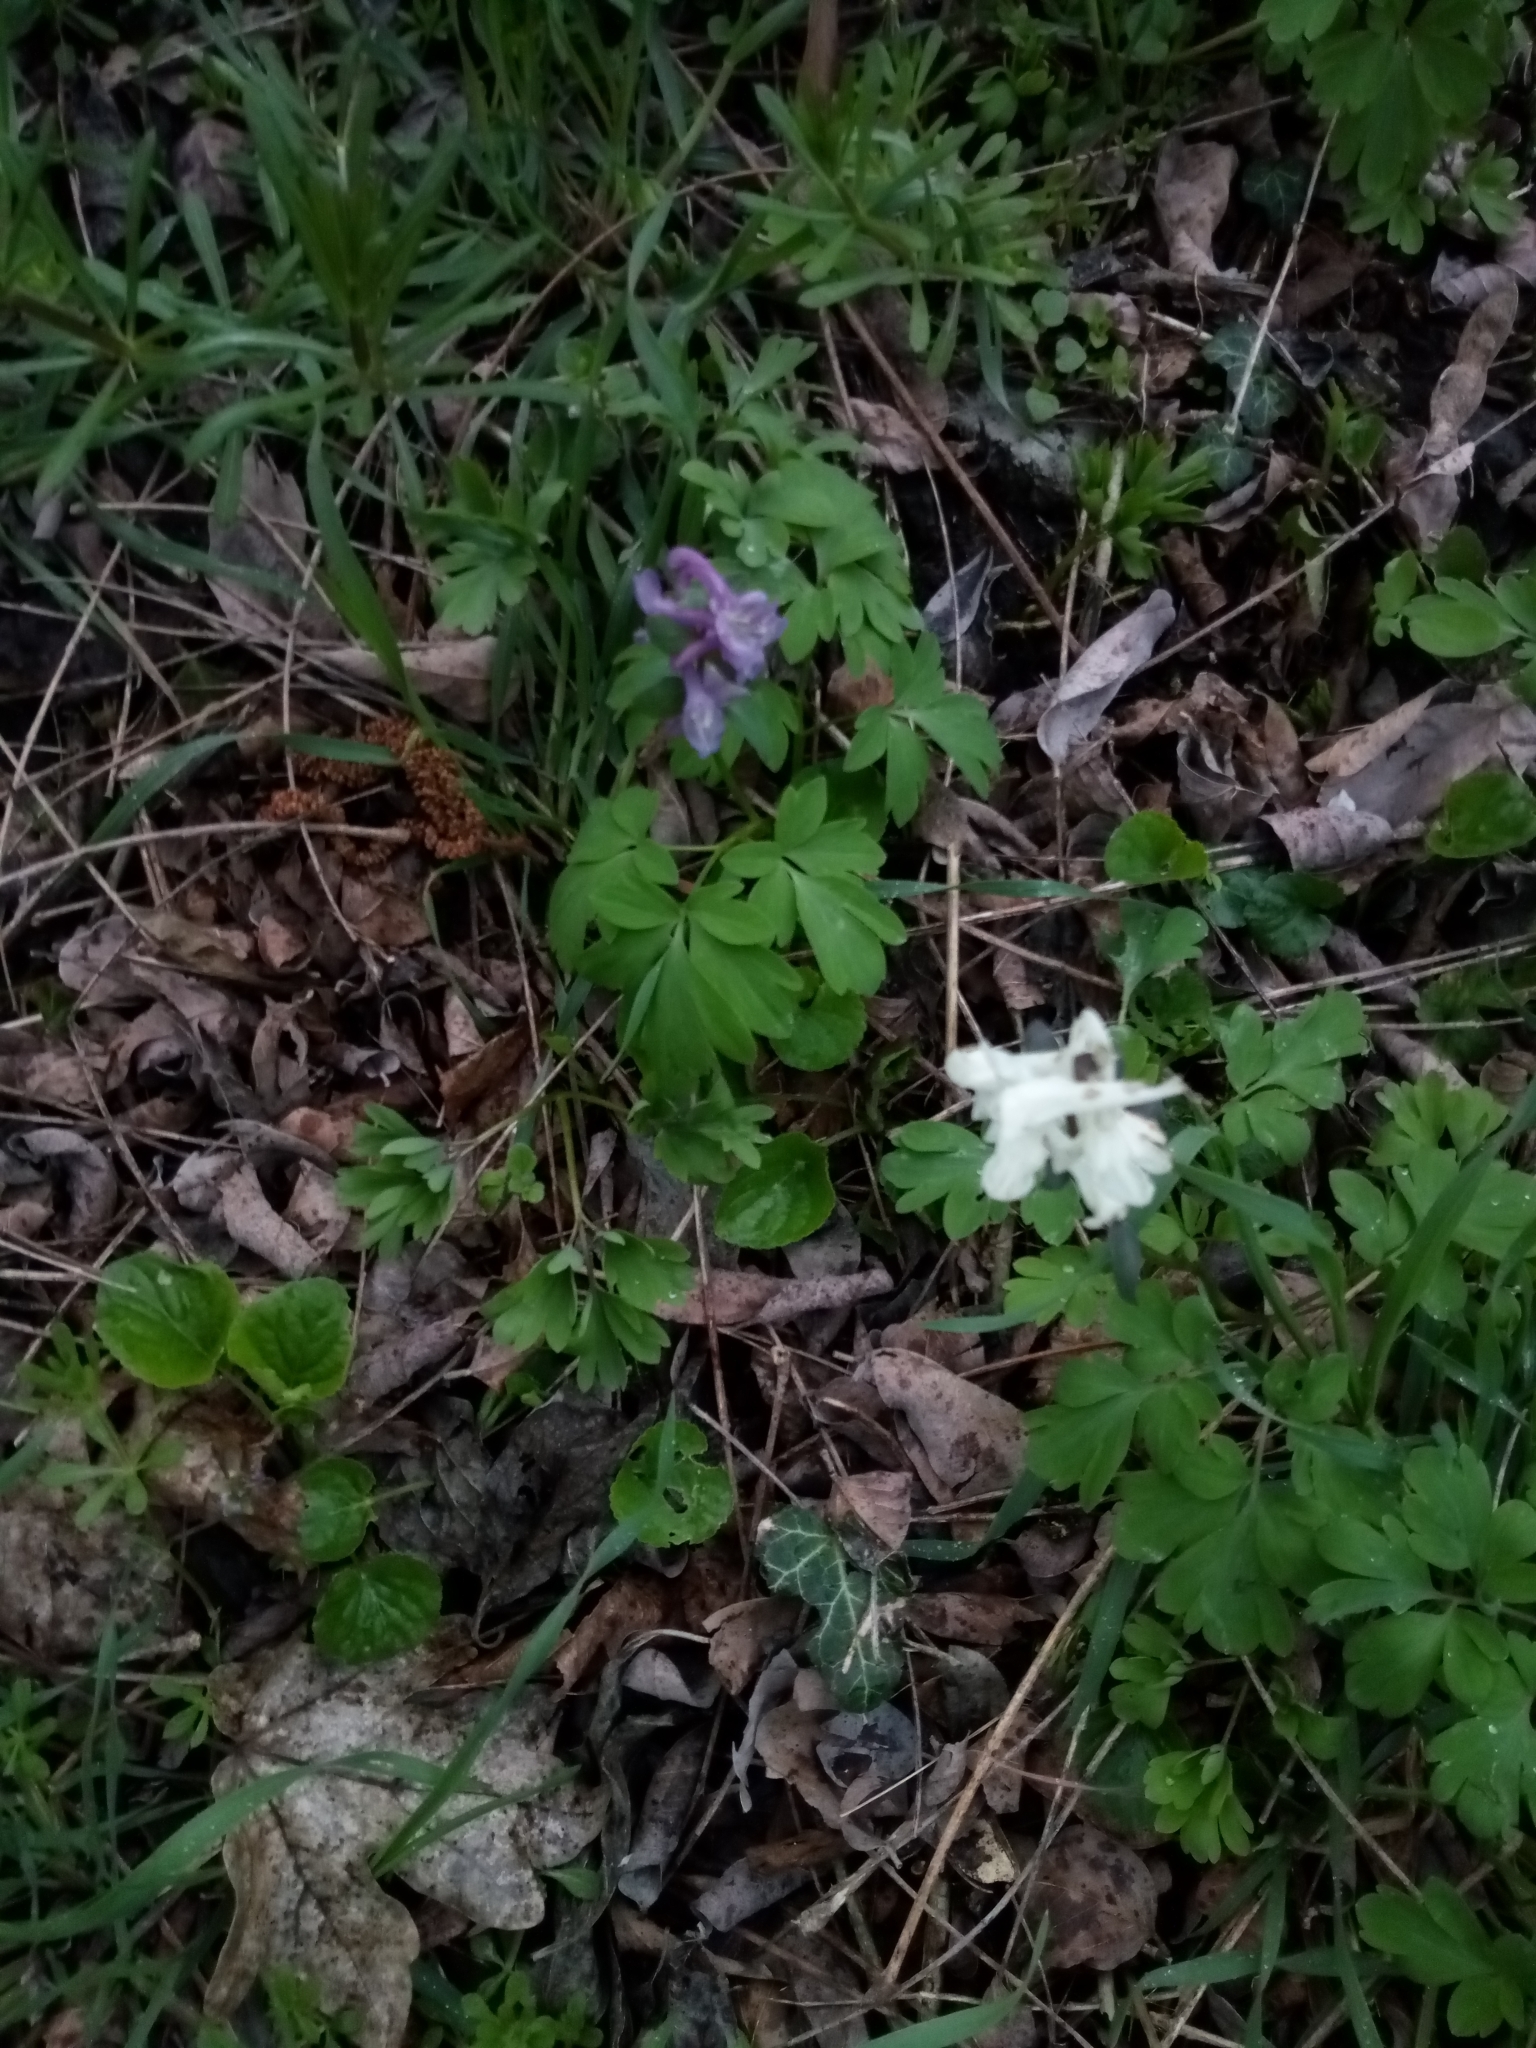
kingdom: Plantae
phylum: Tracheophyta
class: Magnoliopsida
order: Ranunculales
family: Papaveraceae
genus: Corydalis
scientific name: Corydalis cava
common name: Hollowroot
